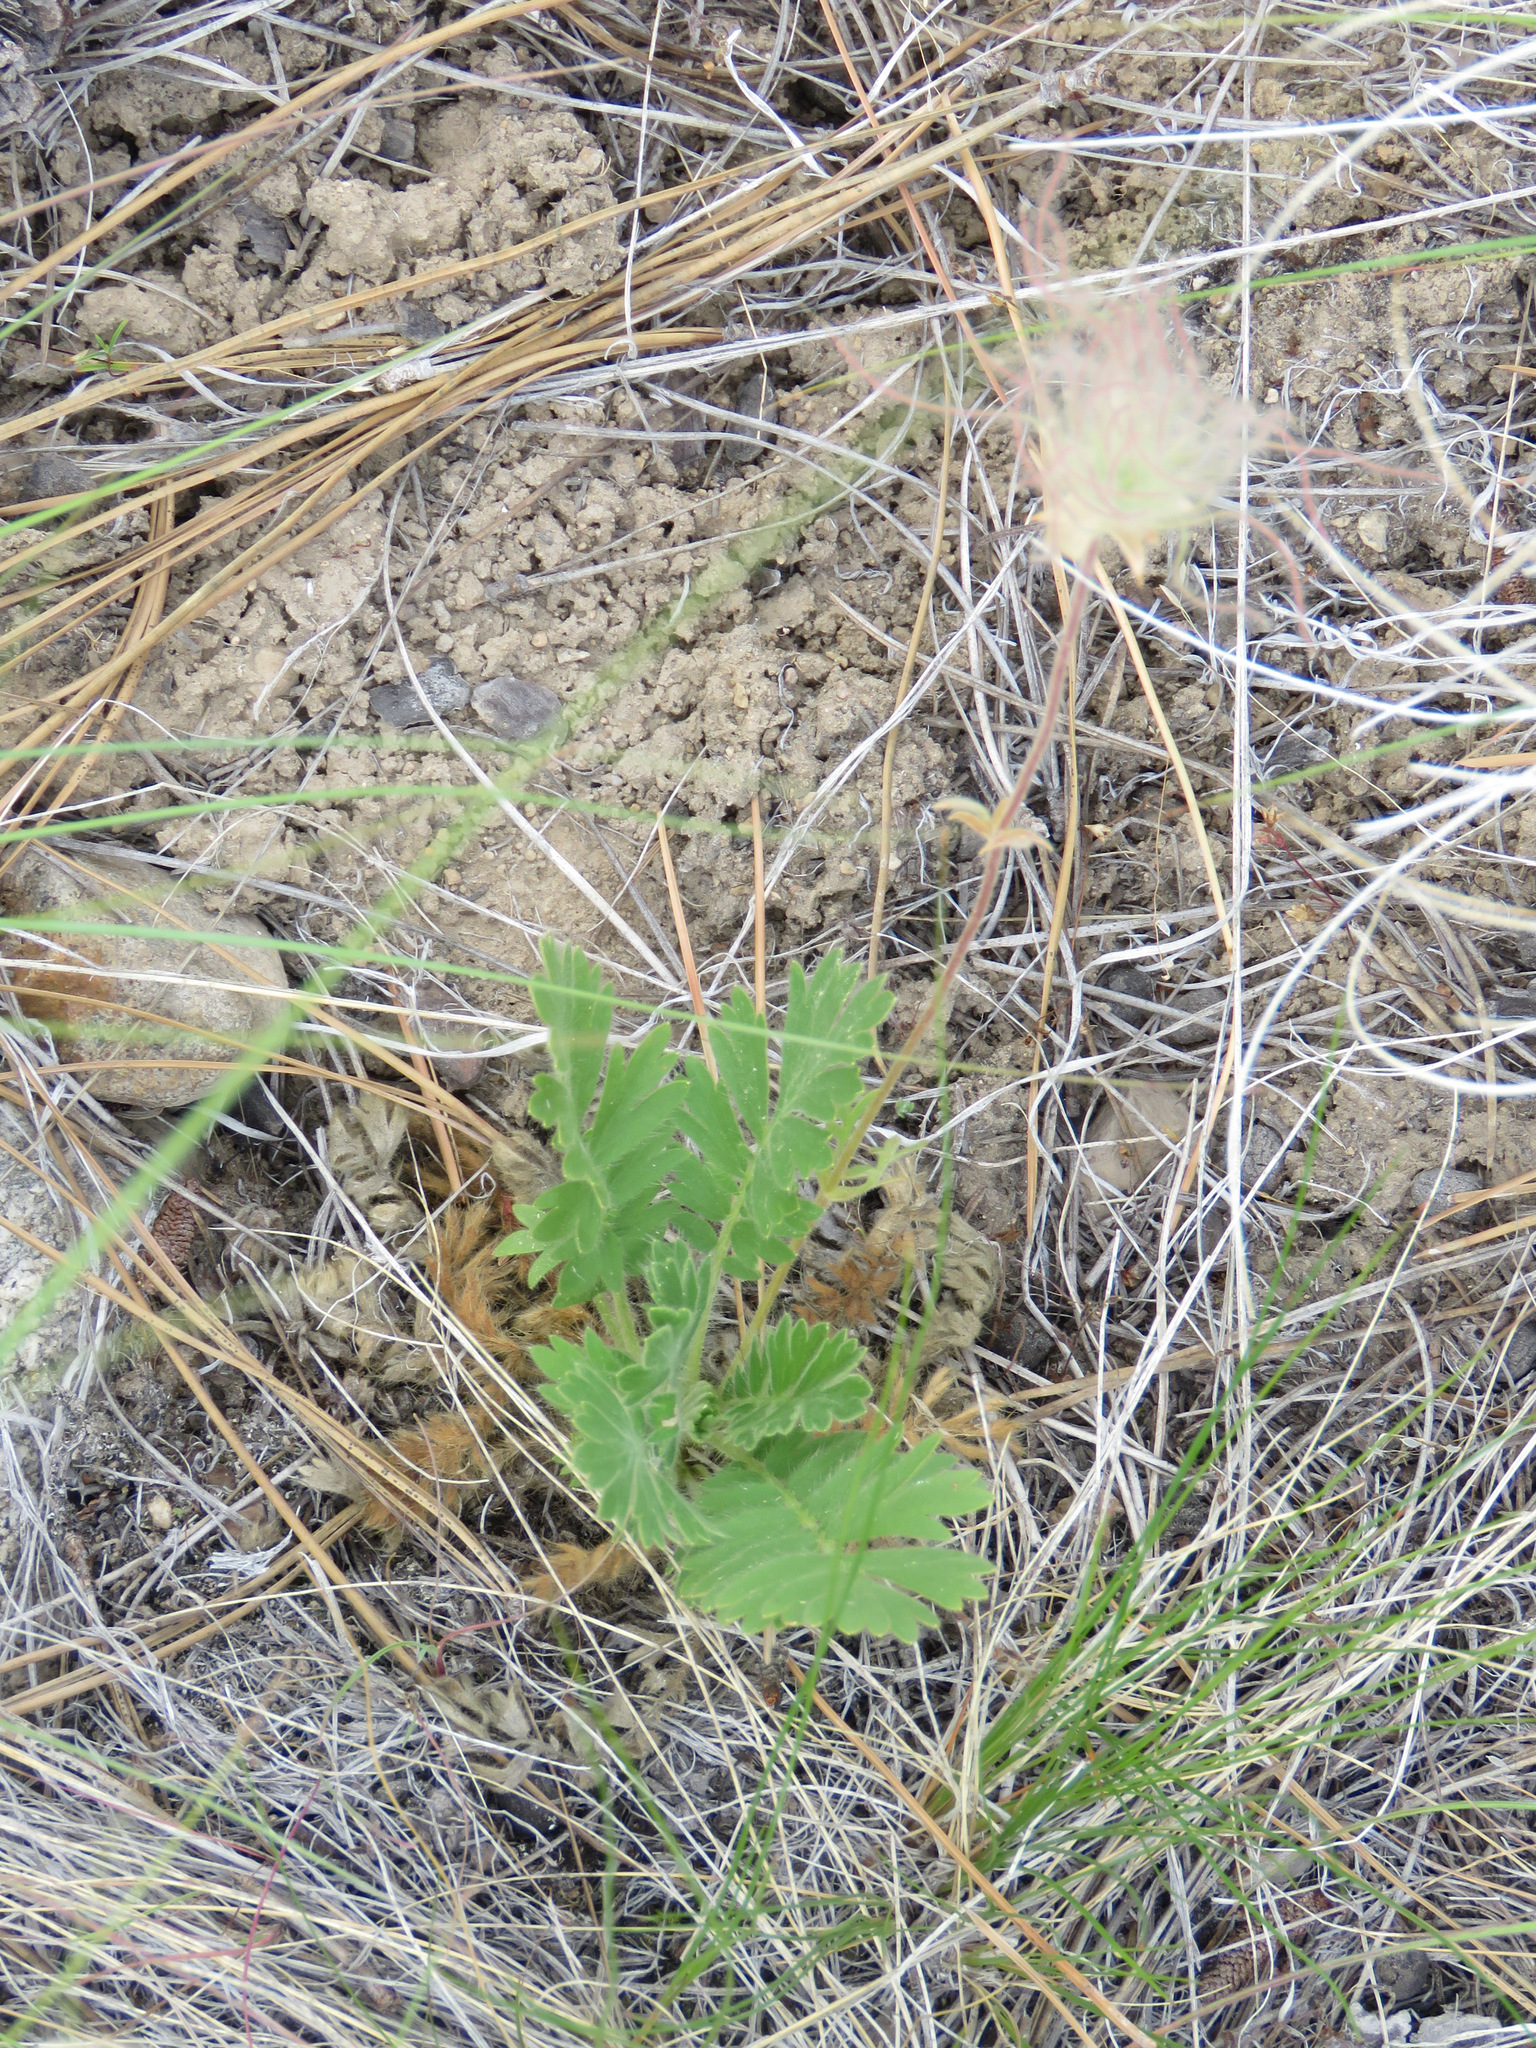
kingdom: Plantae
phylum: Tracheophyta
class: Magnoliopsida
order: Rosales
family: Rosaceae
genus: Geum
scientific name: Geum triflorum
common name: Old man's whiskers
